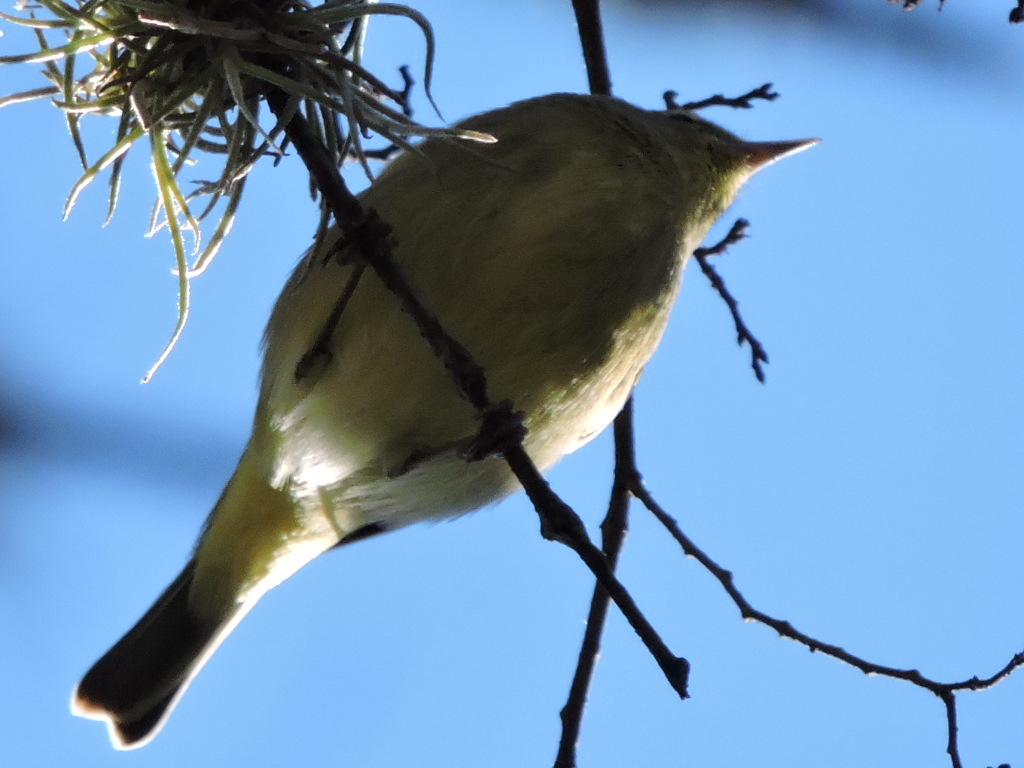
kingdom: Animalia
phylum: Chordata
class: Aves
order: Passeriformes
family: Parulidae
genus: Leiothlypis
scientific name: Leiothlypis celata
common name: Orange-crowned warbler
